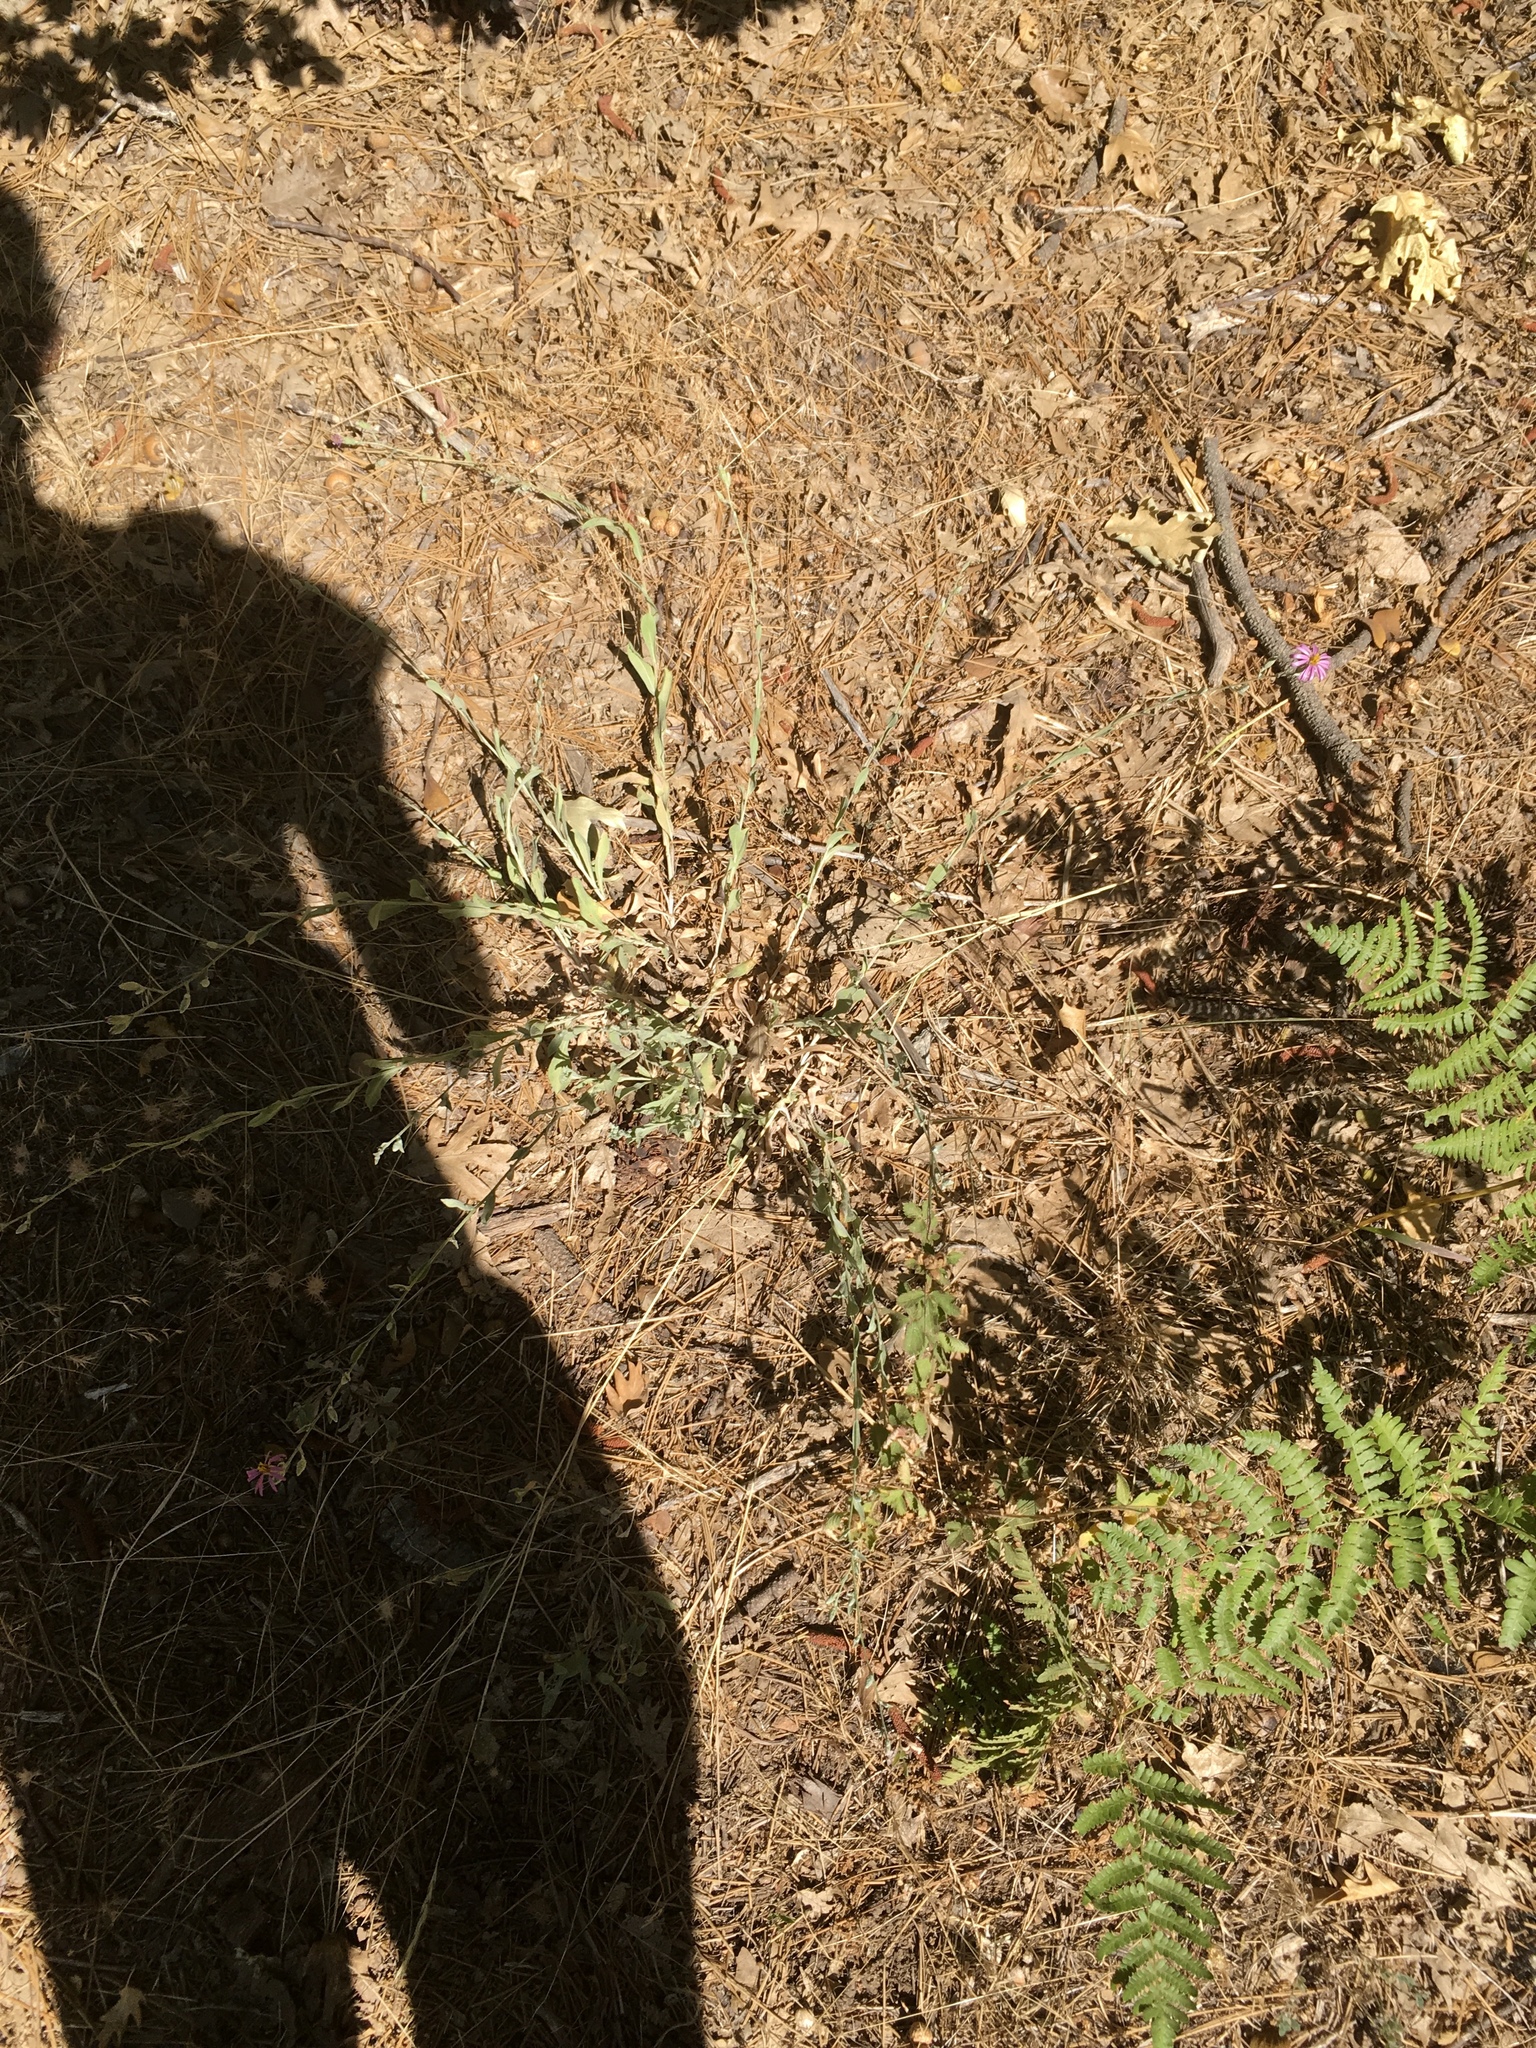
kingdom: Plantae
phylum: Tracheophyta
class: Magnoliopsida
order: Asterales
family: Asteraceae
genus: Corethrogyne
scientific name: Corethrogyne filaginifolia
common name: Sand-aster
